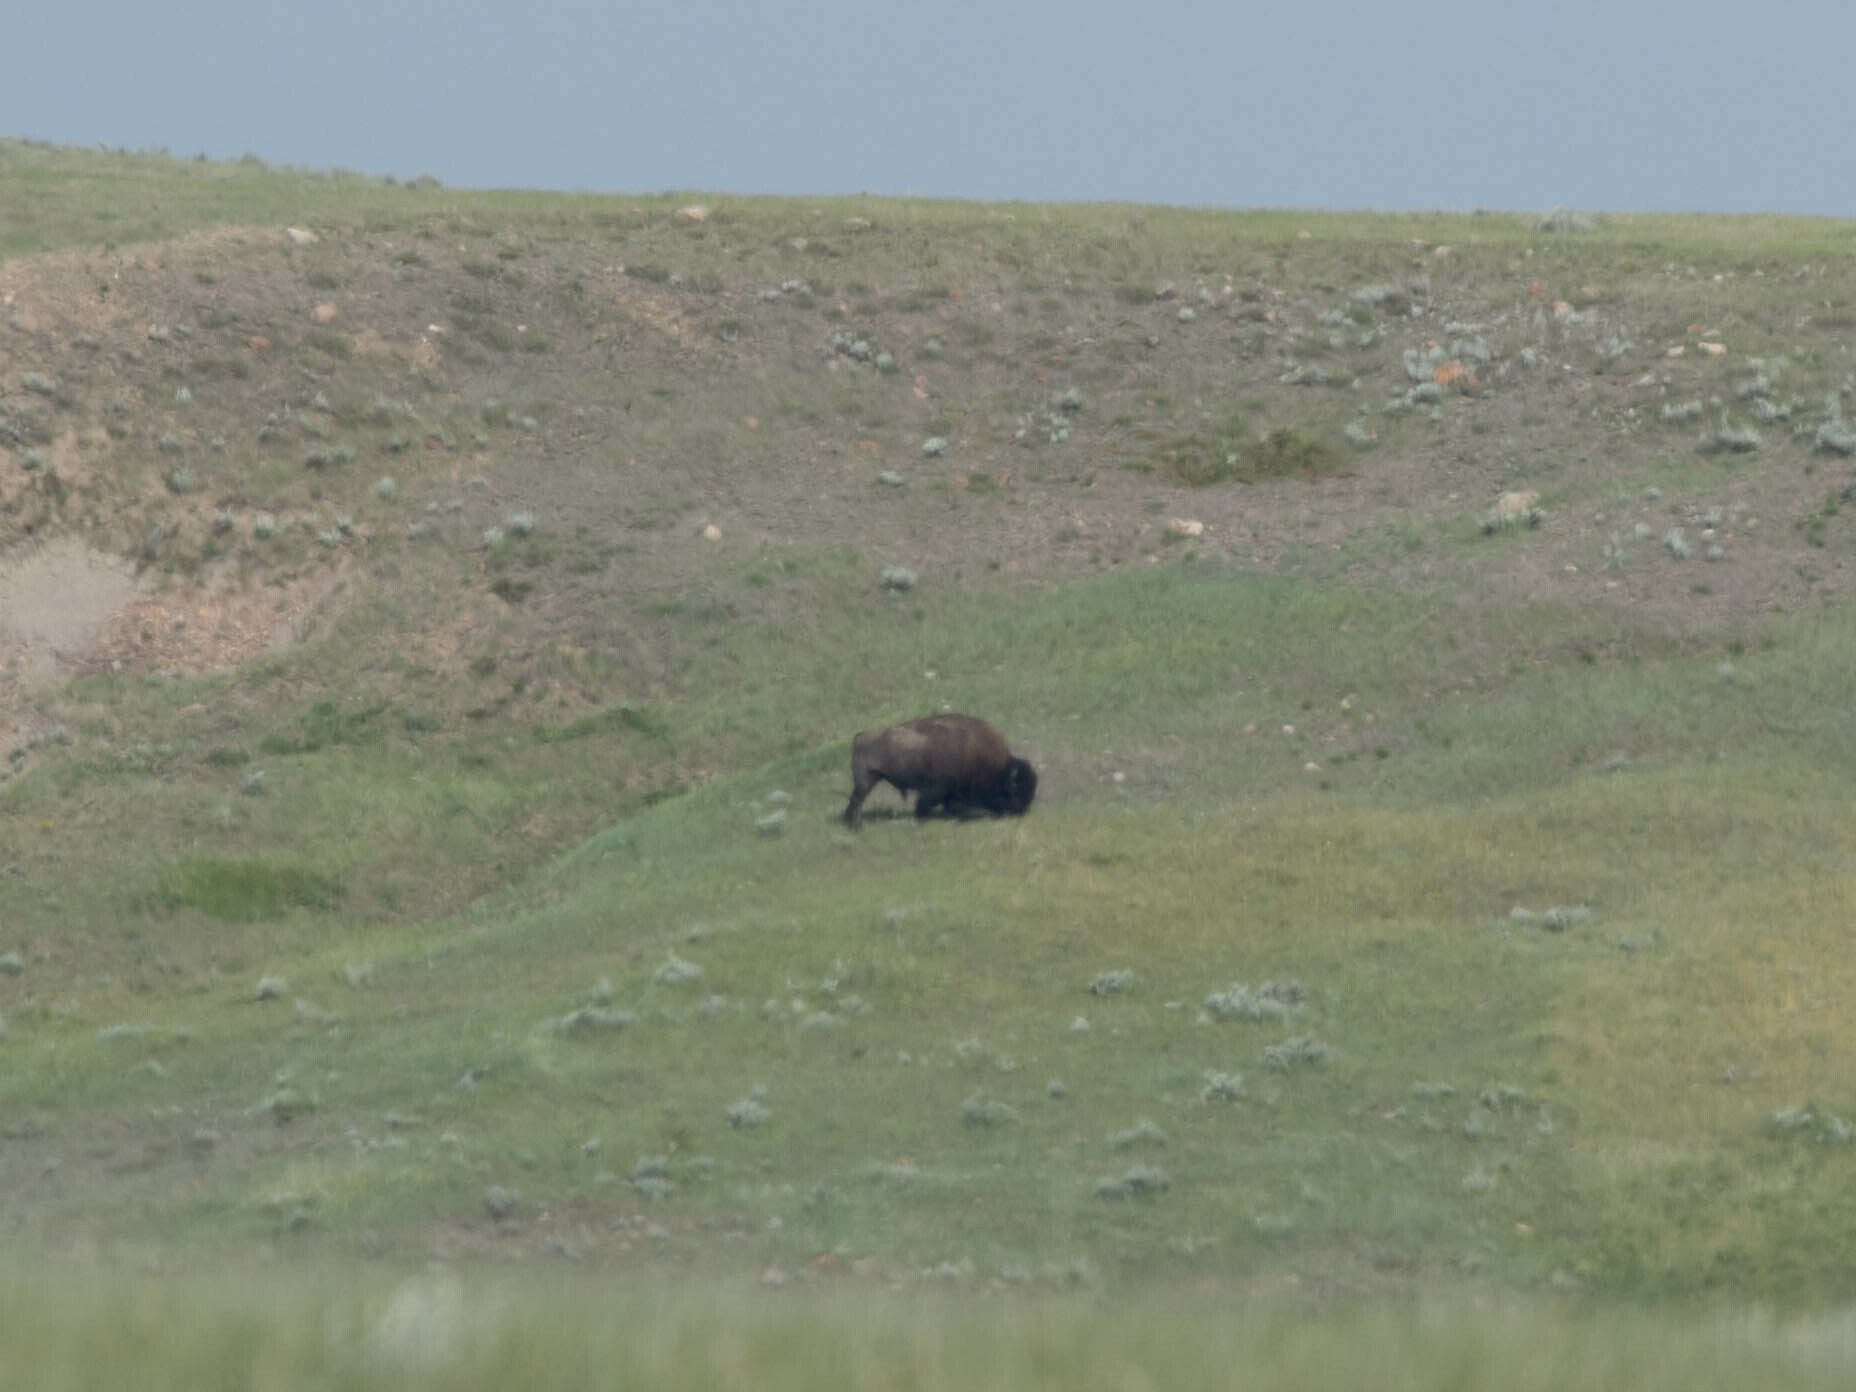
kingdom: Animalia
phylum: Chordata
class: Mammalia
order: Artiodactyla
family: Bovidae
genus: Bison
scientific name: Bison bison
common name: American bison
